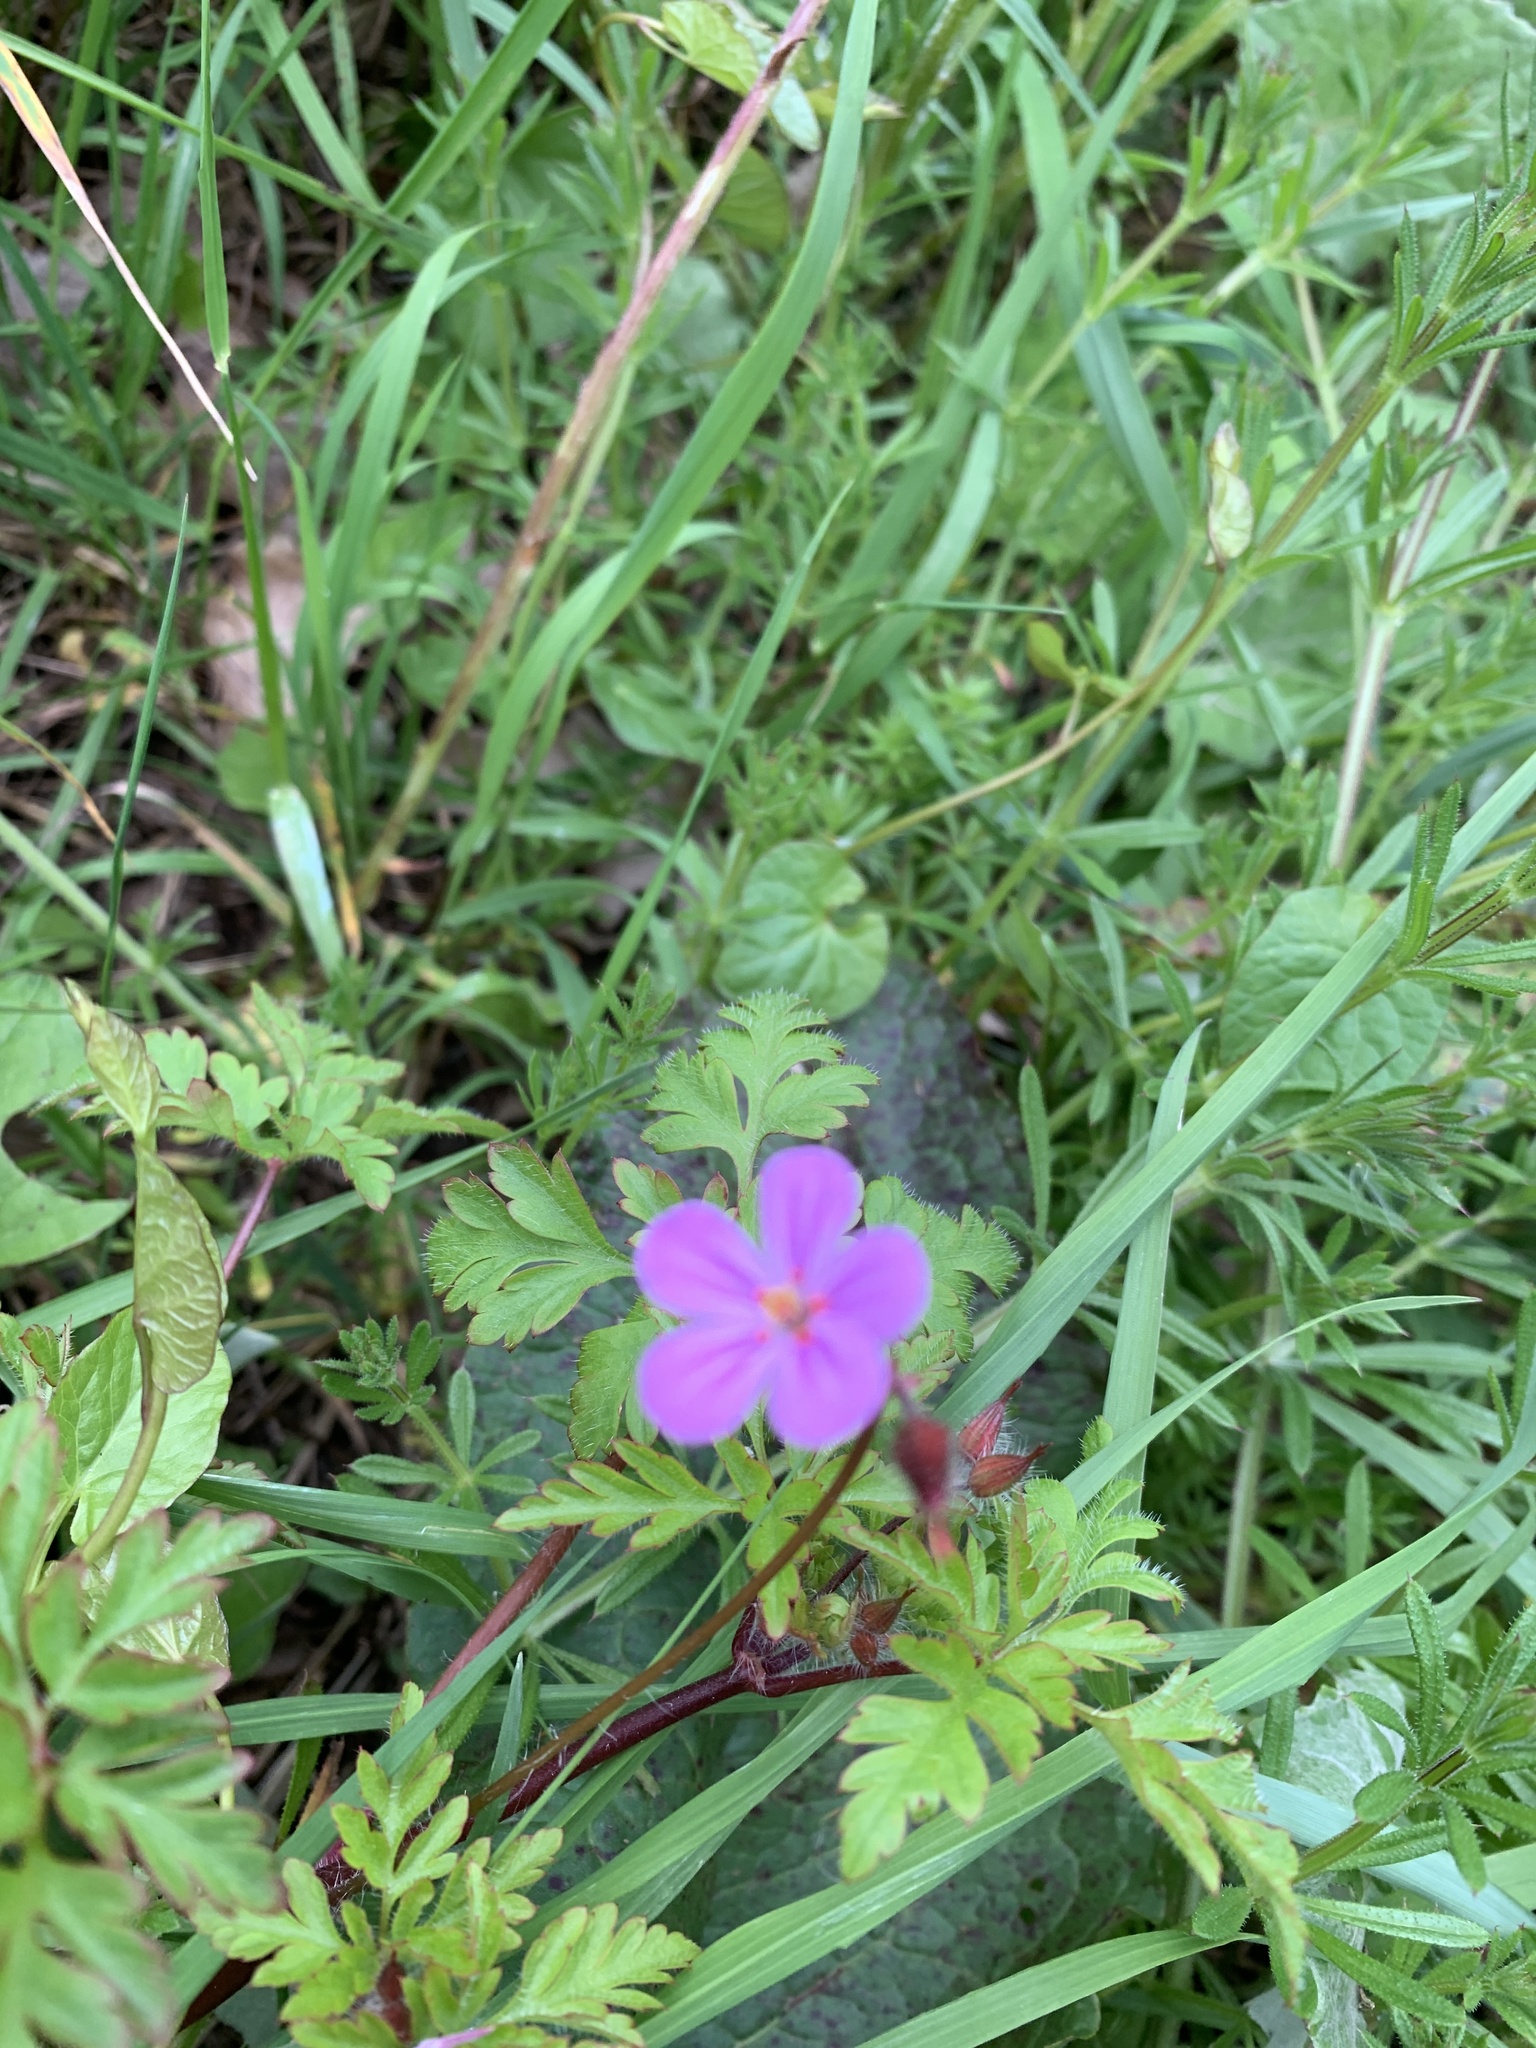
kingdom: Plantae
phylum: Tracheophyta
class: Magnoliopsida
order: Geraniales
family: Geraniaceae
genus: Geranium
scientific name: Geranium robertianum
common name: Herb-robert
